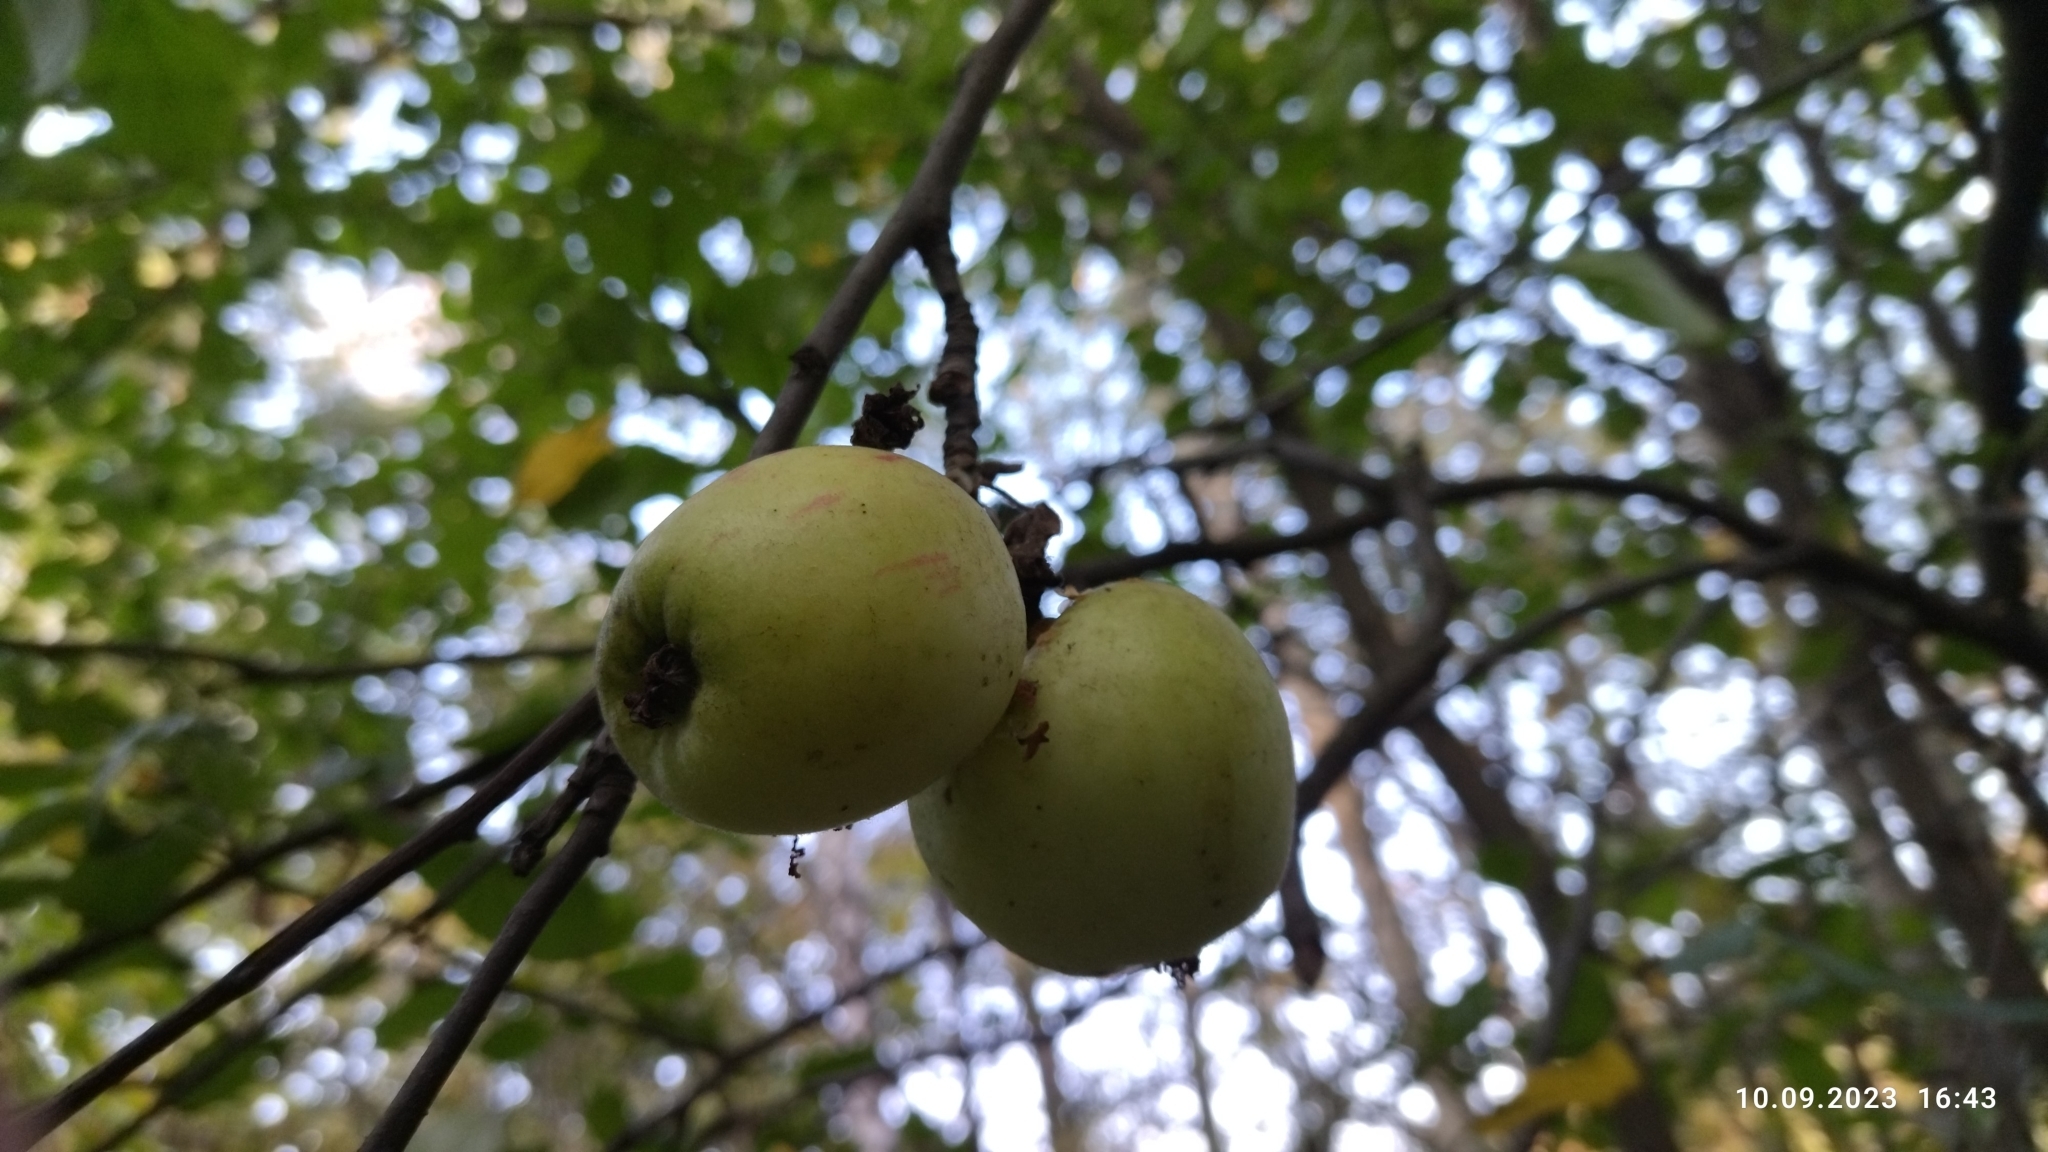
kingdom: Plantae
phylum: Tracheophyta
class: Magnoliopsida
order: Rosales
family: Rosaceae
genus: Malus
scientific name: Malus domestica
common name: Apple
